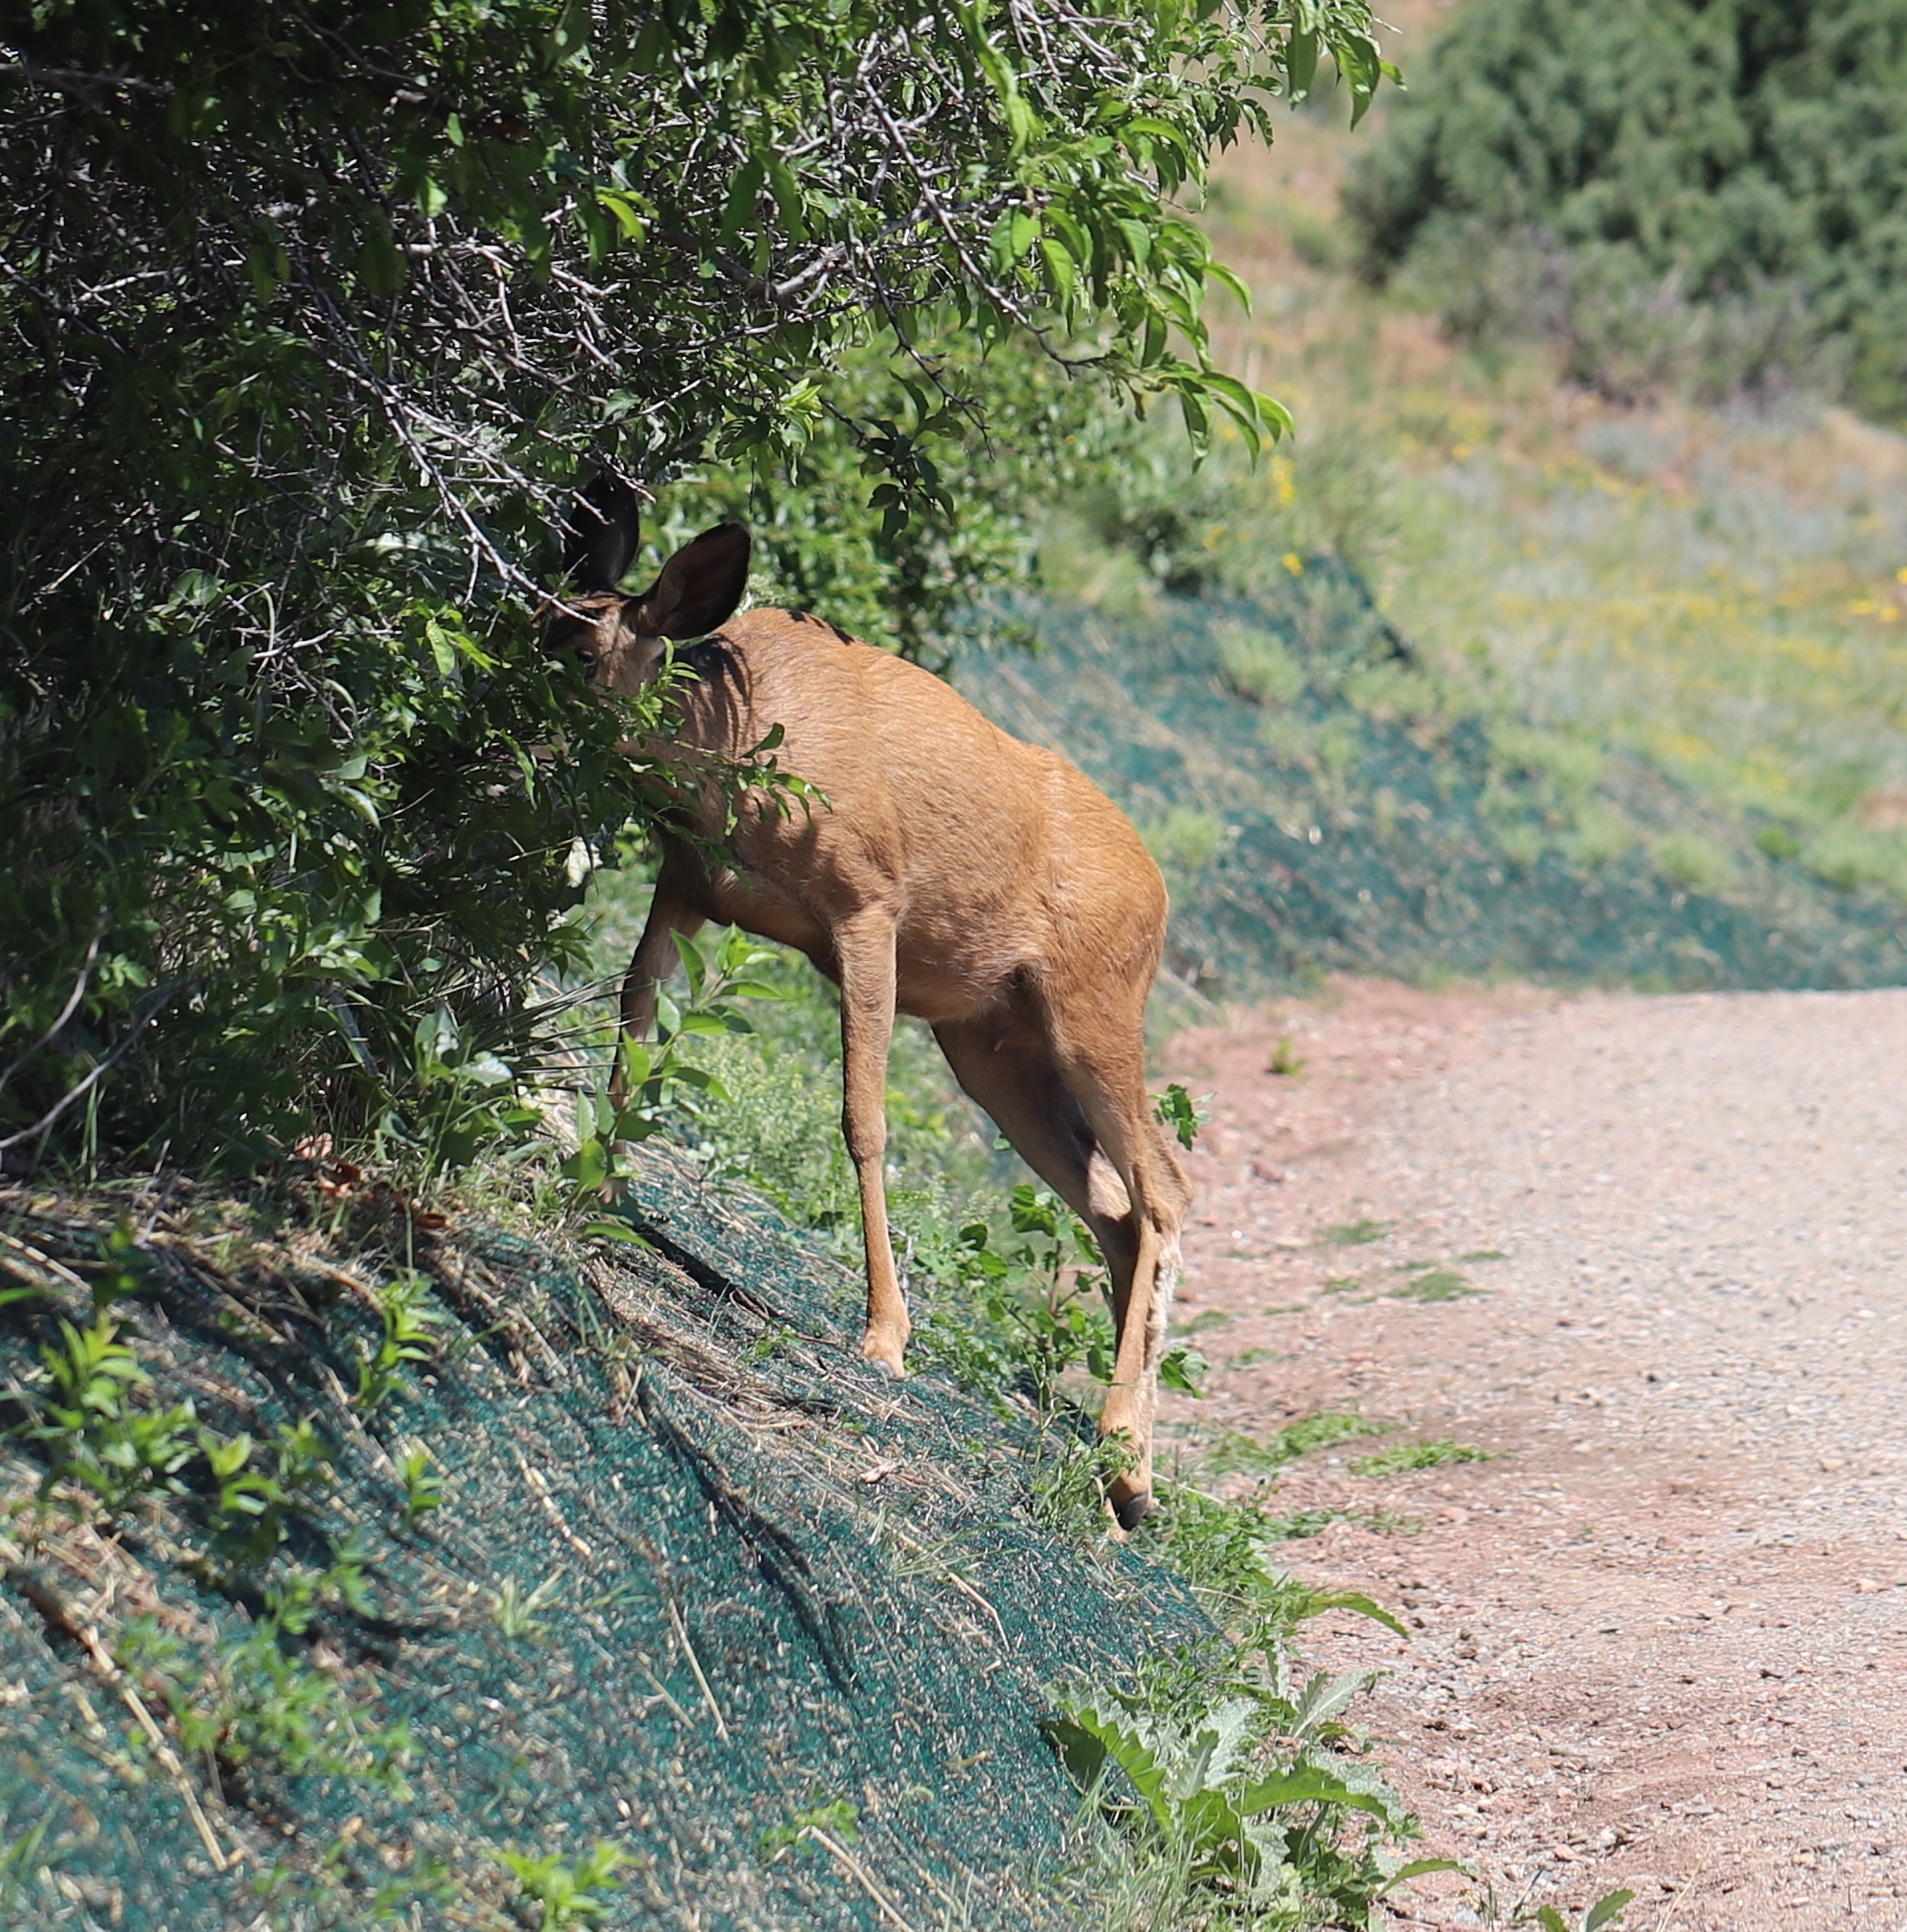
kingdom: Animalia
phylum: Chordata
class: Mammalia
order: Artiodactyla
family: Cervidae
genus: Odocoileus
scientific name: Odocoileus hemionus
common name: Mule deer
